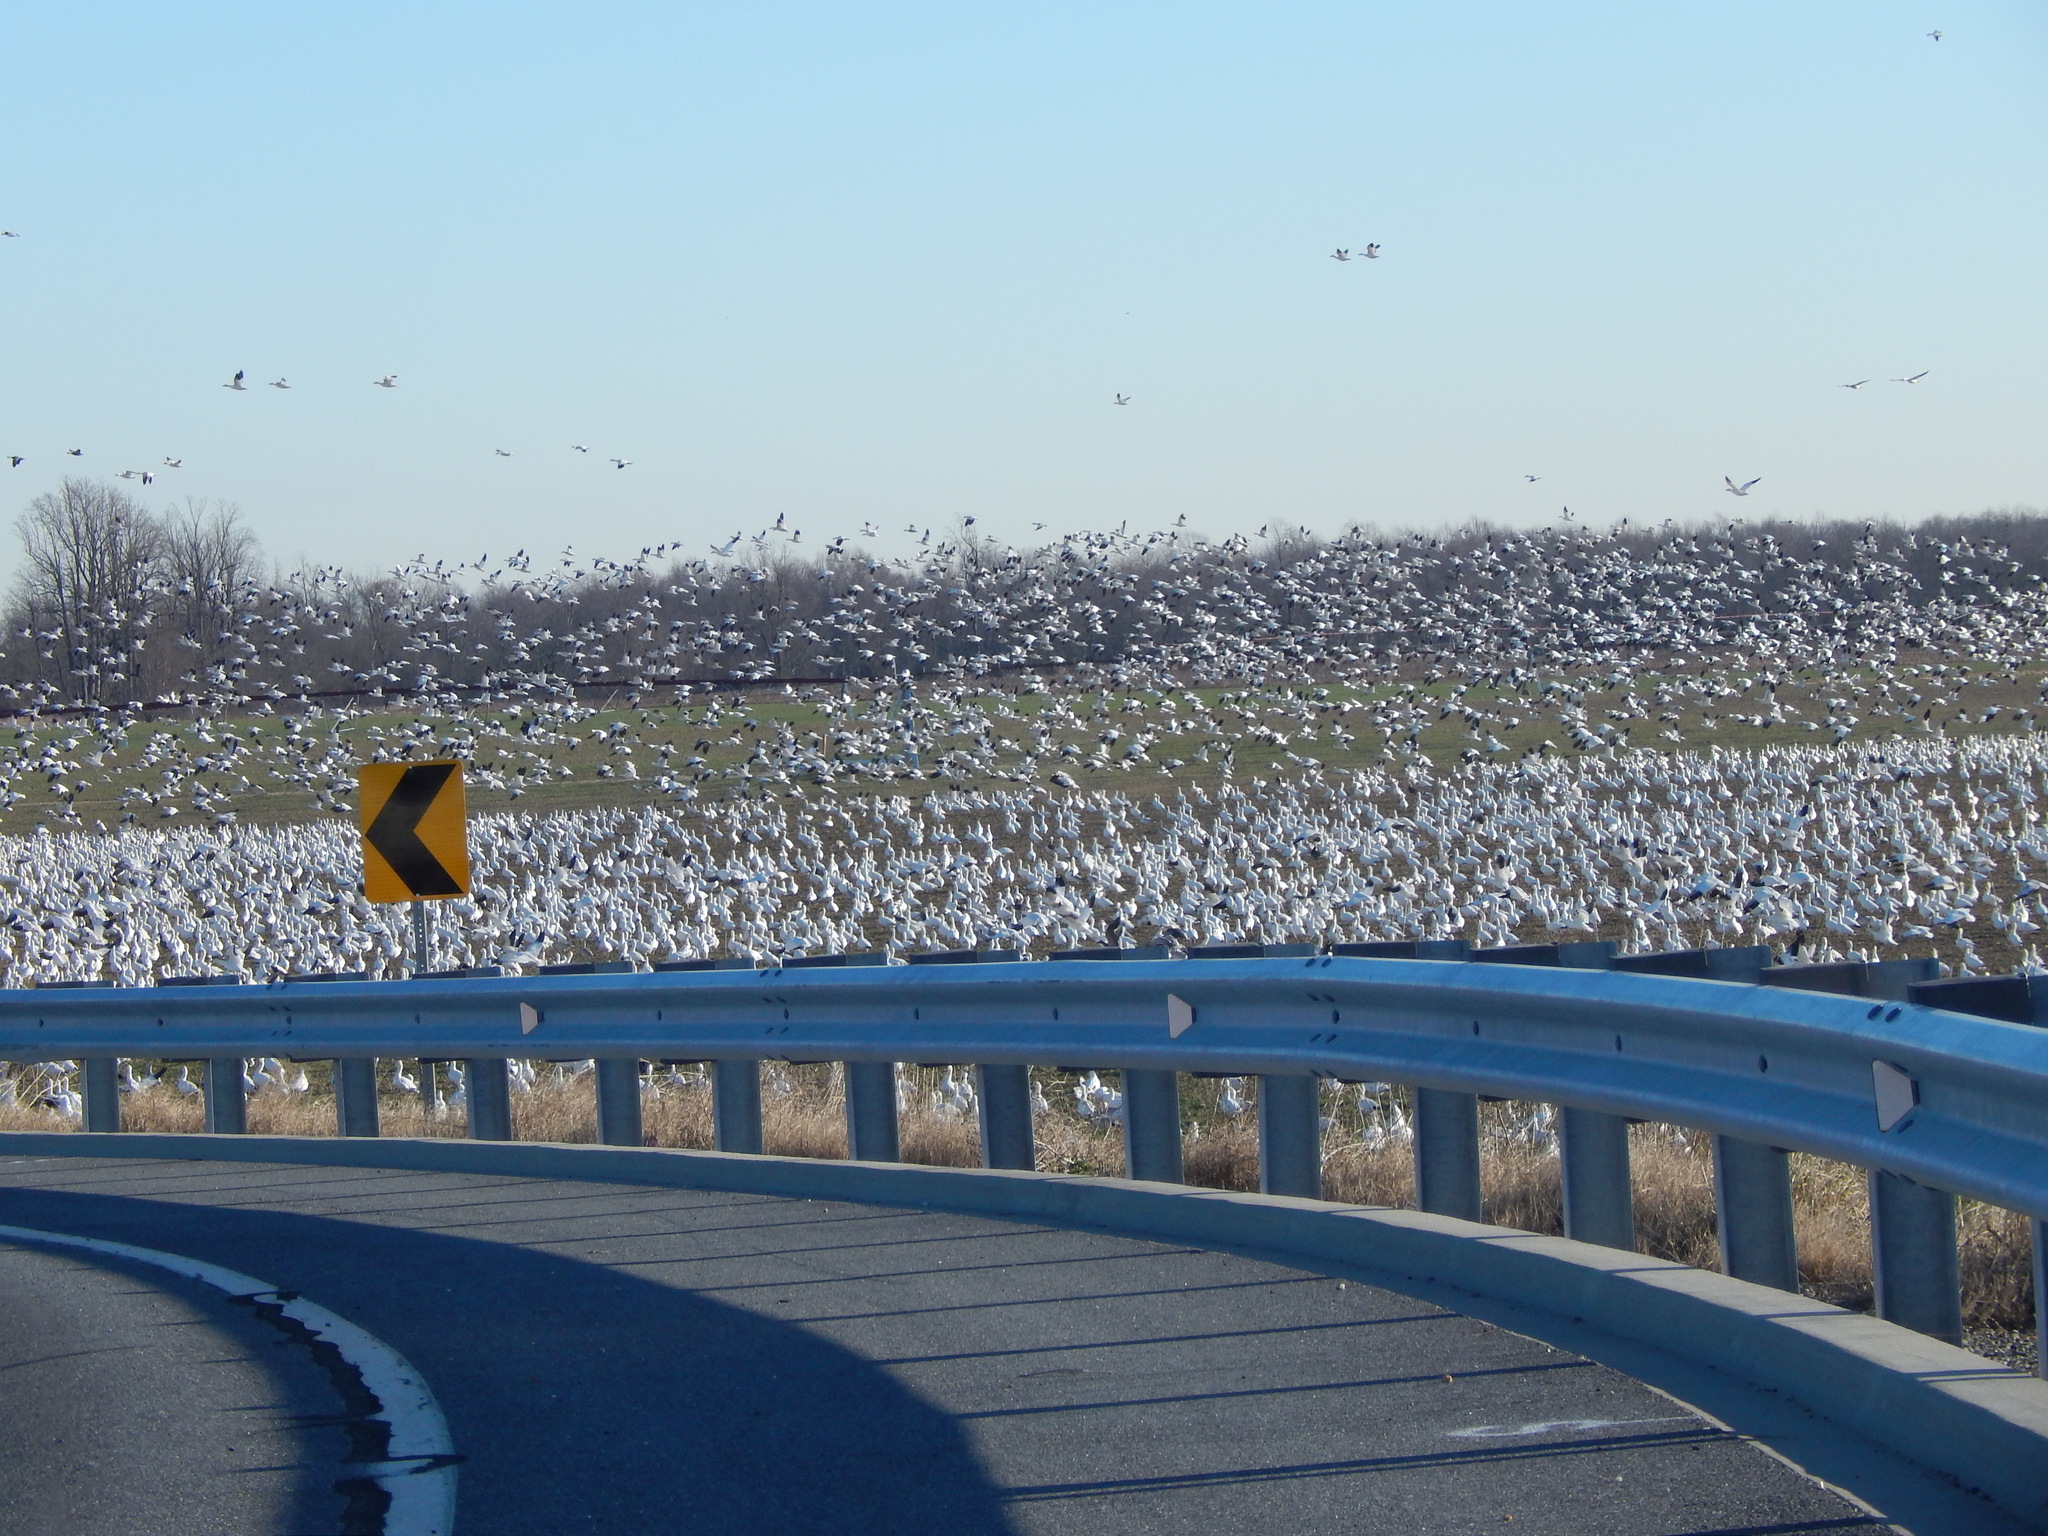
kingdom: Animalia
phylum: Chordata
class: Aves
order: Anseriformes
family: Anatidae
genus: Anser
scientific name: Anser caerulescens
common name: Snow goose
